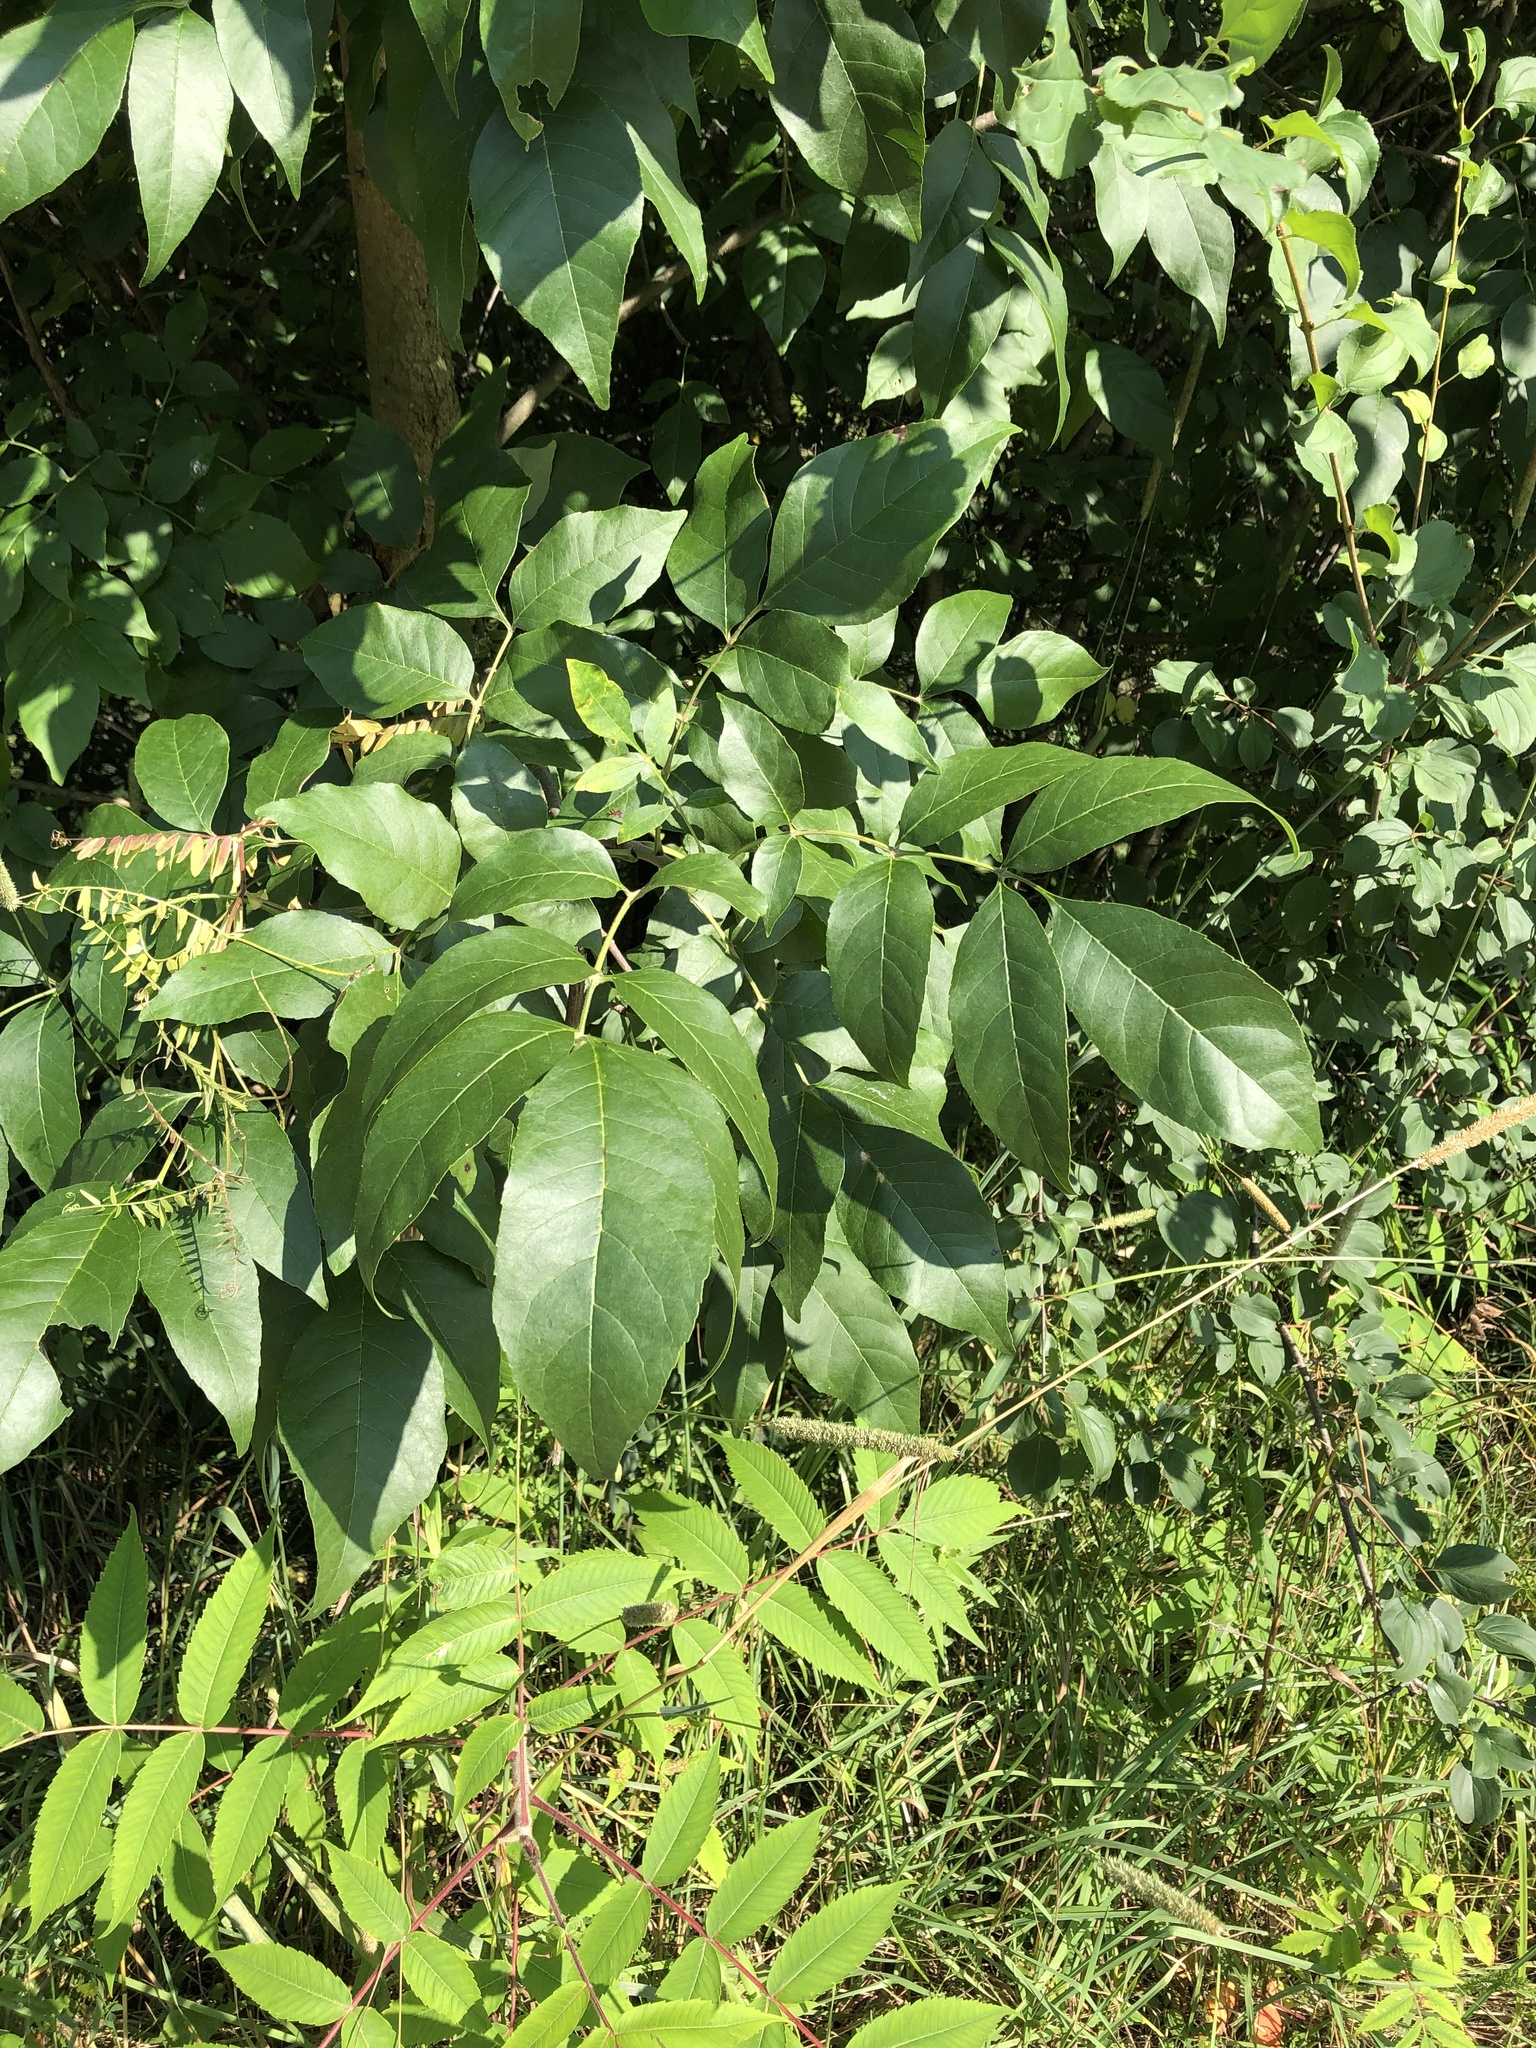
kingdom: Plantae
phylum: Tracheophyta
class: Magnoliopsida
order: Lamiales
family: Oleaceae
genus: Fraxinus
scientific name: Fraxinus pennsylvanica
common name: Green ash
